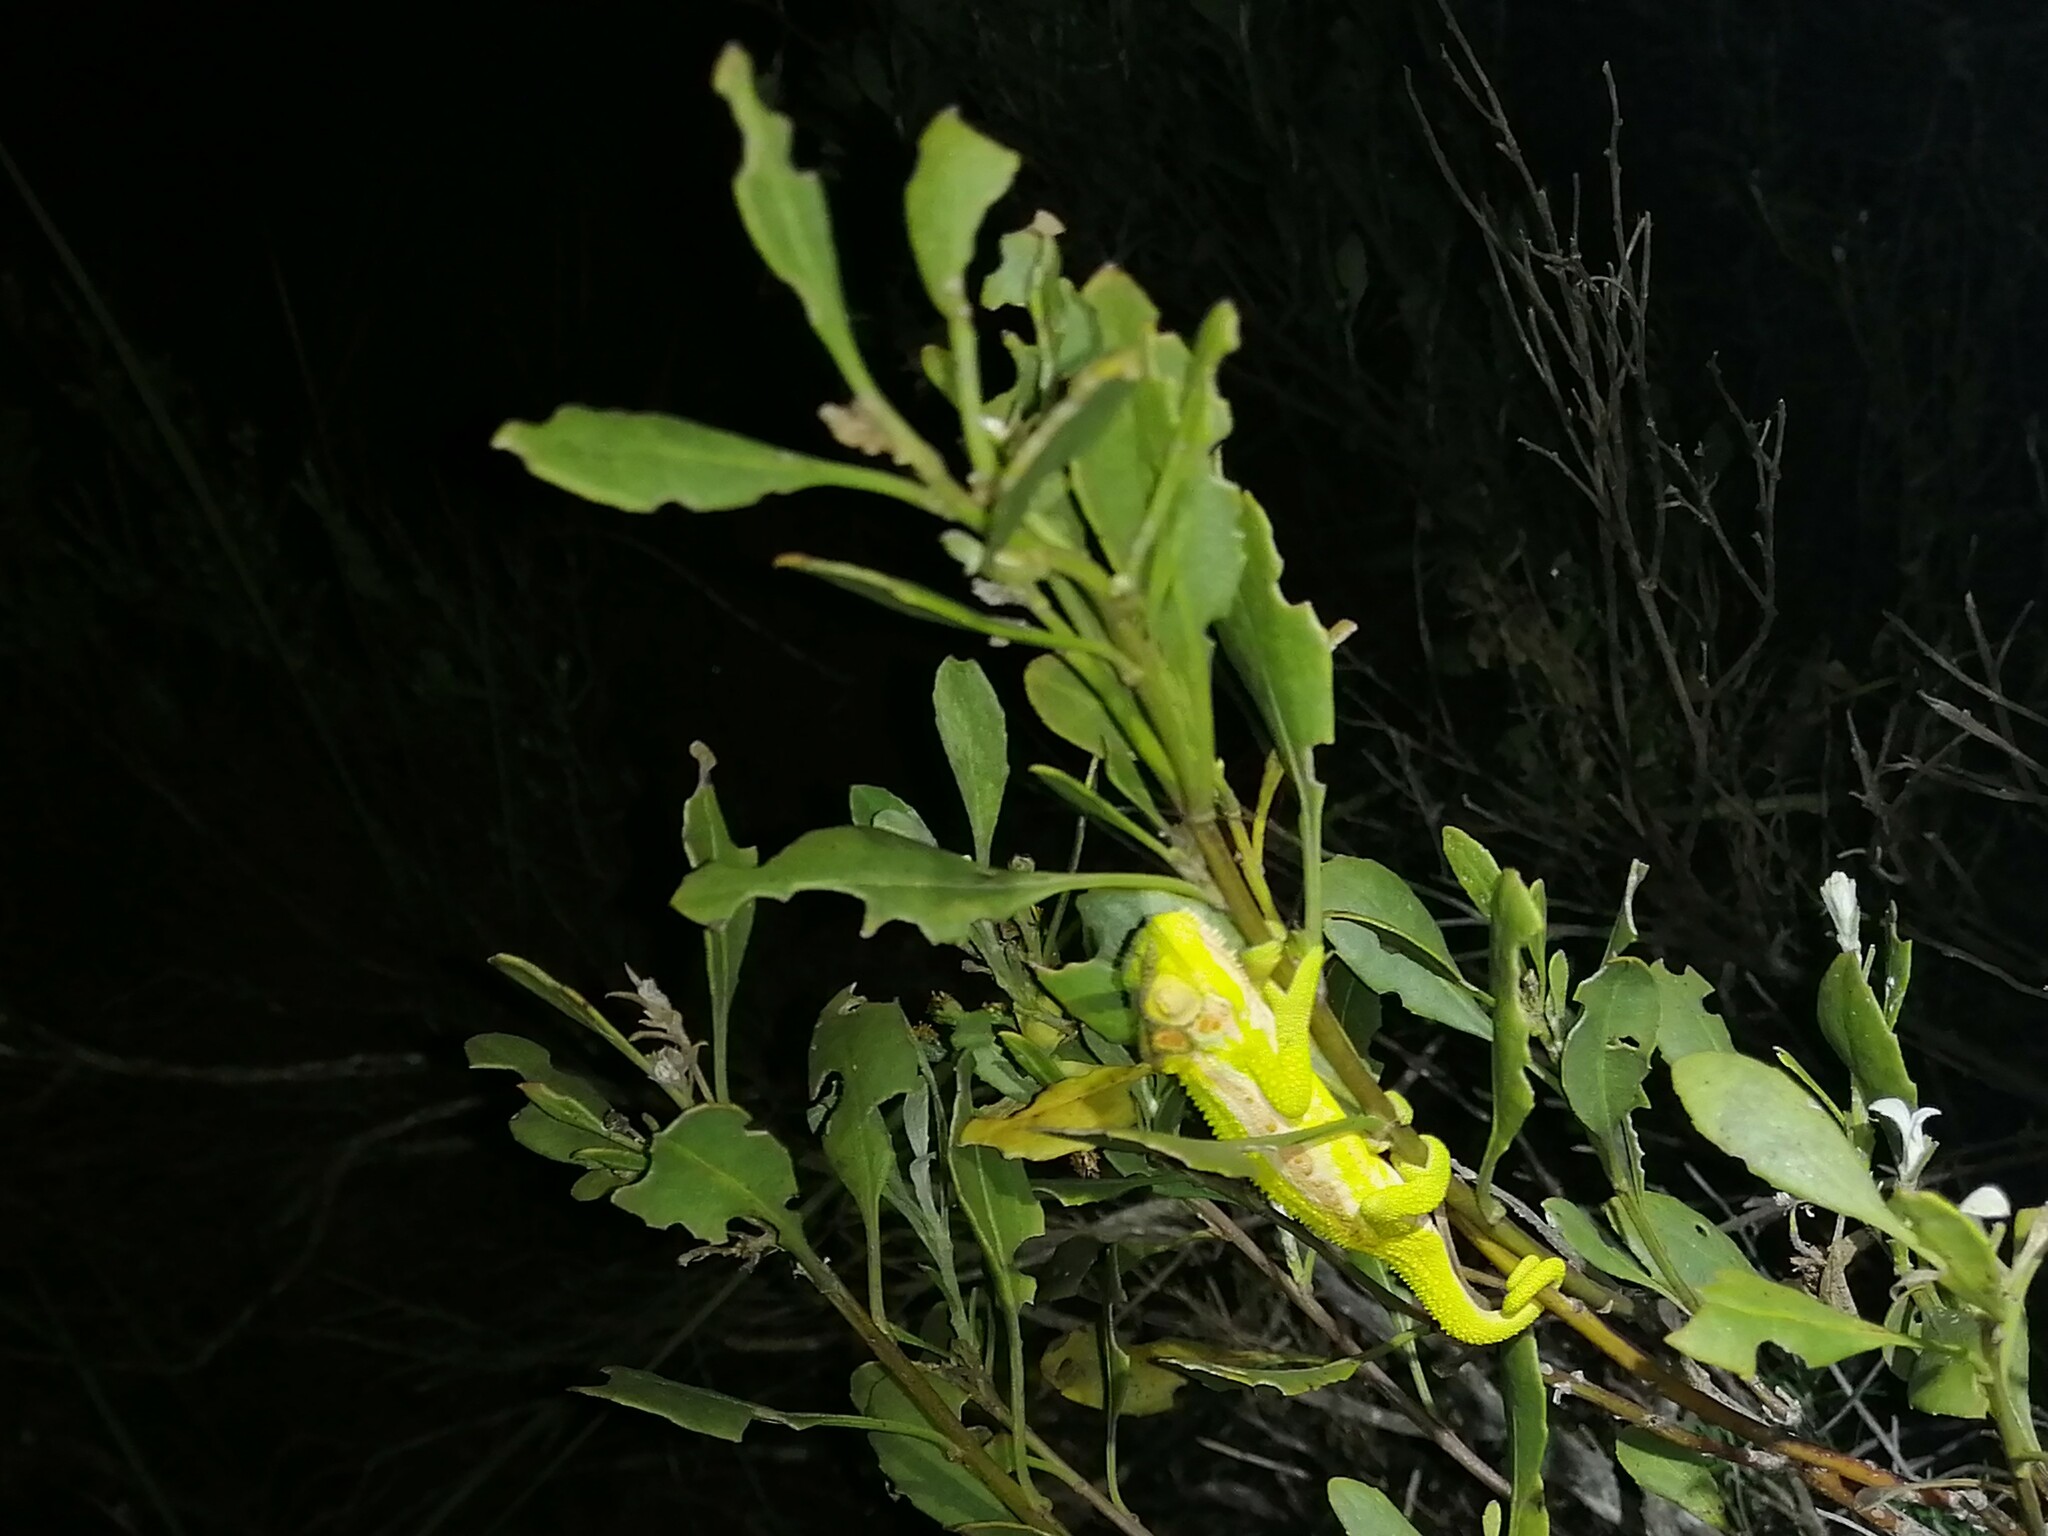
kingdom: Animalia
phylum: Chordata
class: Squamata
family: Chamaeleonidae
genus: Bradypodion
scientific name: Bradypodion pumilum
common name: Cape dwarf chameleon
